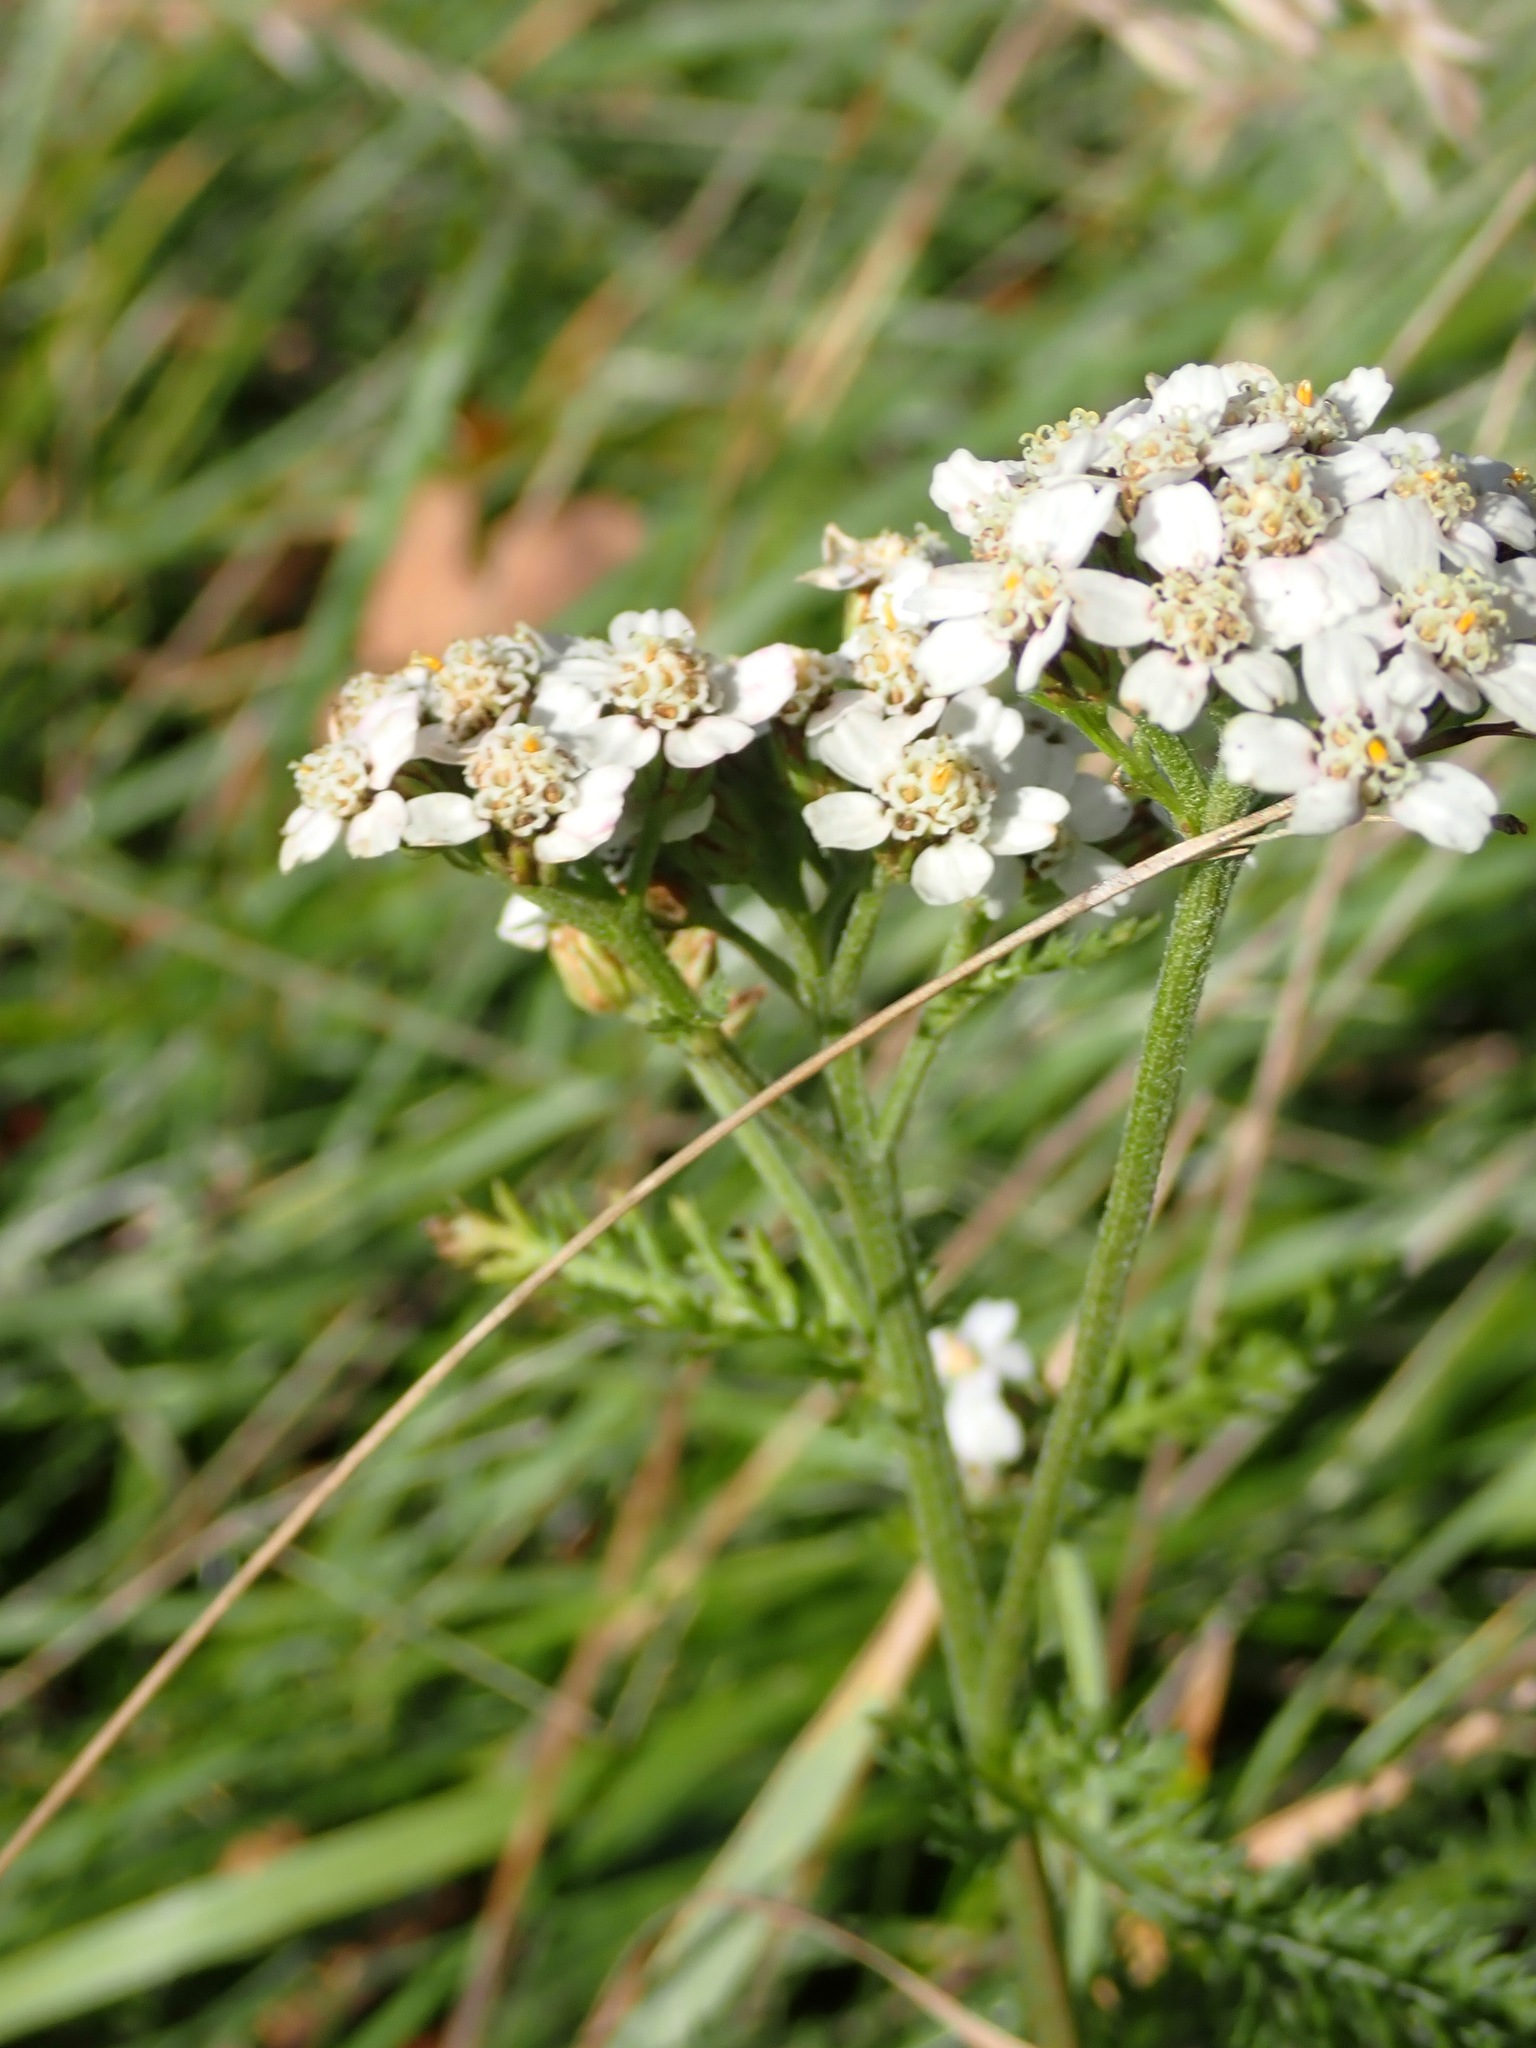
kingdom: Plantae
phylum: Tracheophyta
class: Magnoliopsida
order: Asterales
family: Asteraceae
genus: Achillea
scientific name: Achillea millefolium
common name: Yarrow
